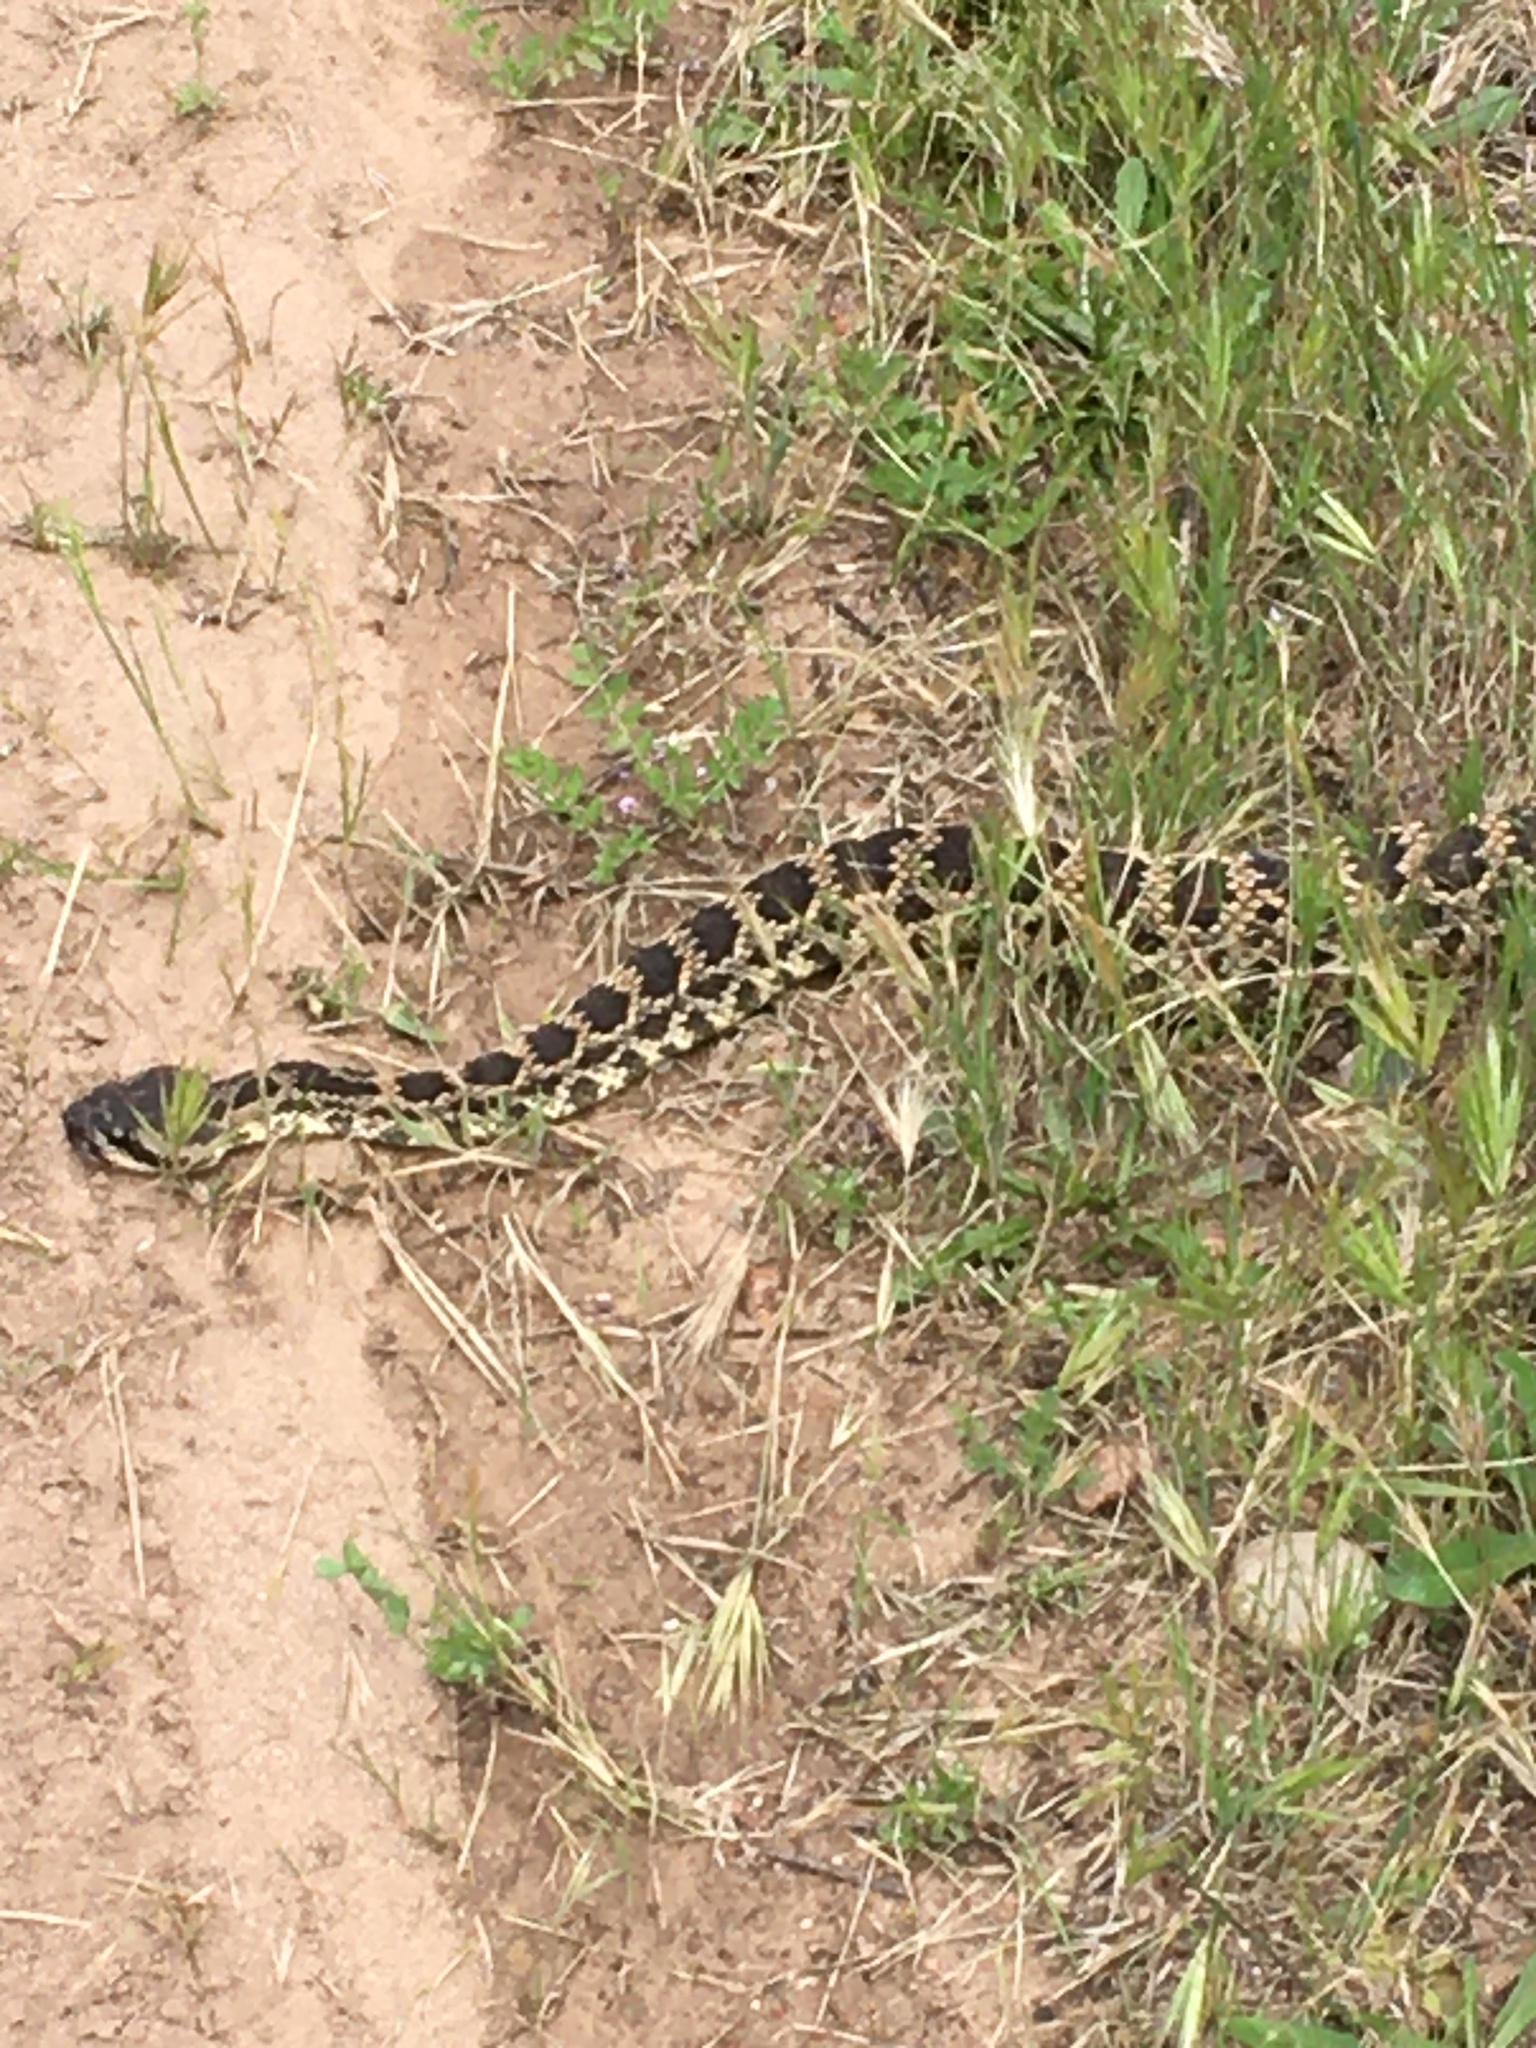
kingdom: Animalia
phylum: Chordata
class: Squamata
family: Viperidae
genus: Crotalus
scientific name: Crotalus oreganus
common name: Abyssus
